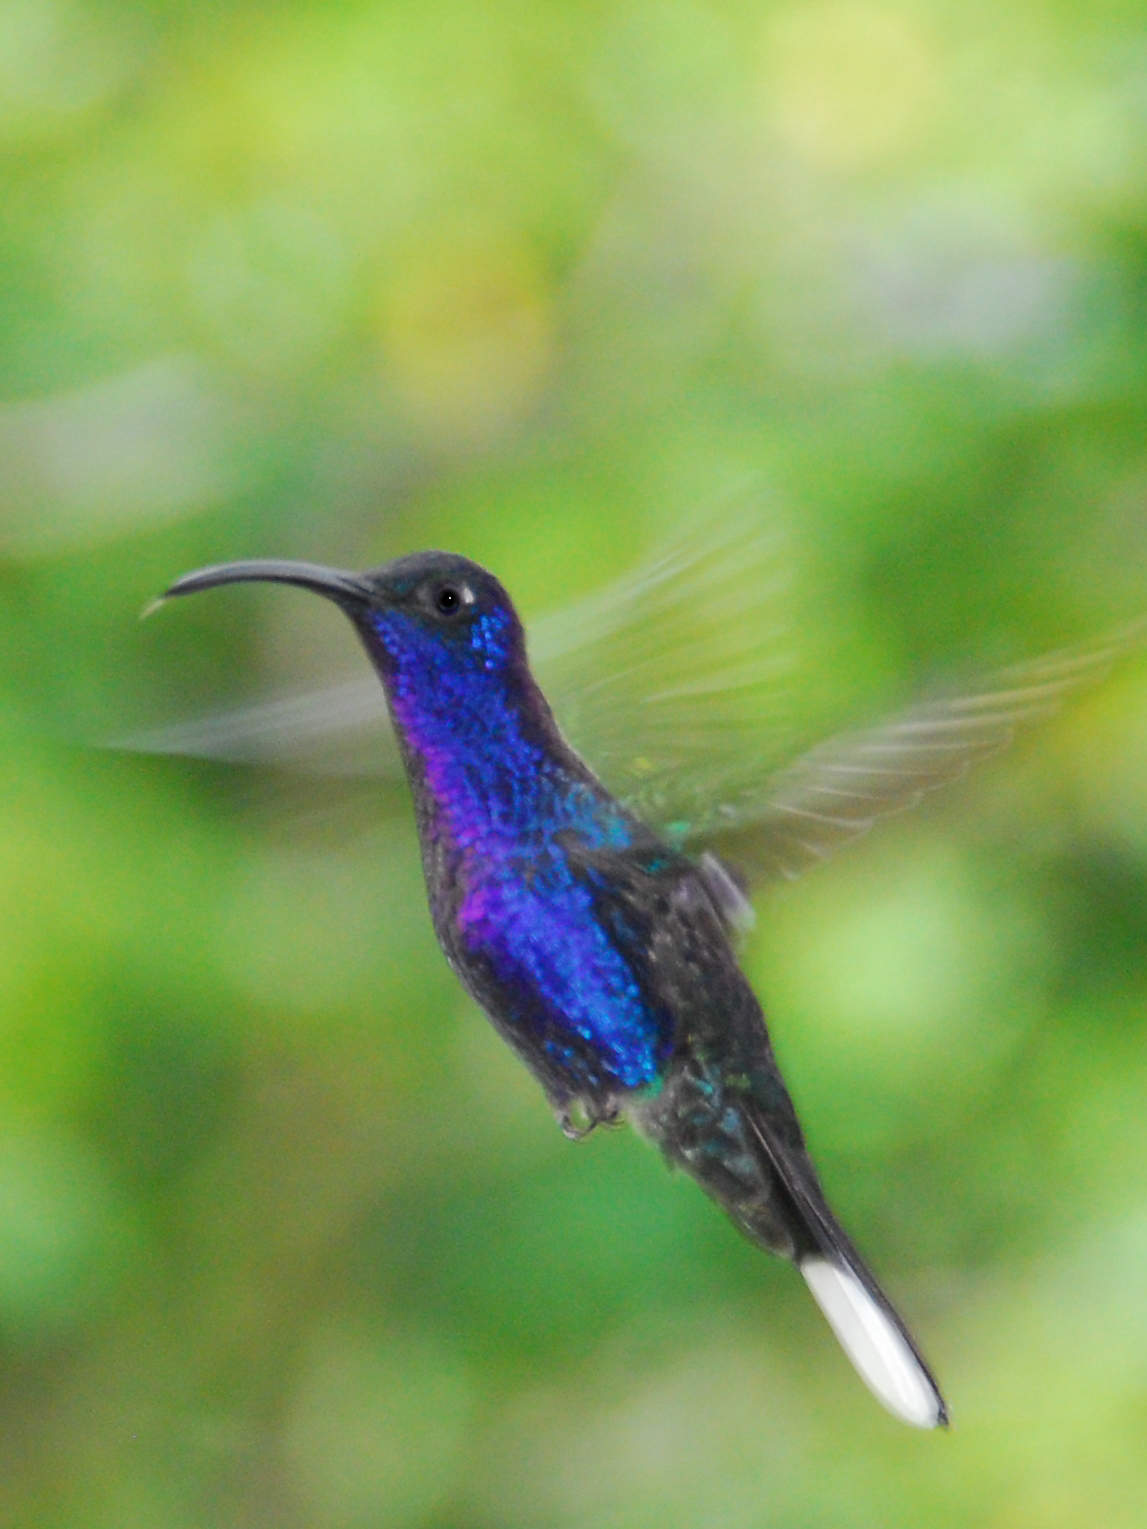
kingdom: Animalia
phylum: Chordata
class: Aves
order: Apodiformes
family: Trochilidae
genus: Campylopterus
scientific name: Campylopterus hemileucurus
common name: Violet sabrewing
